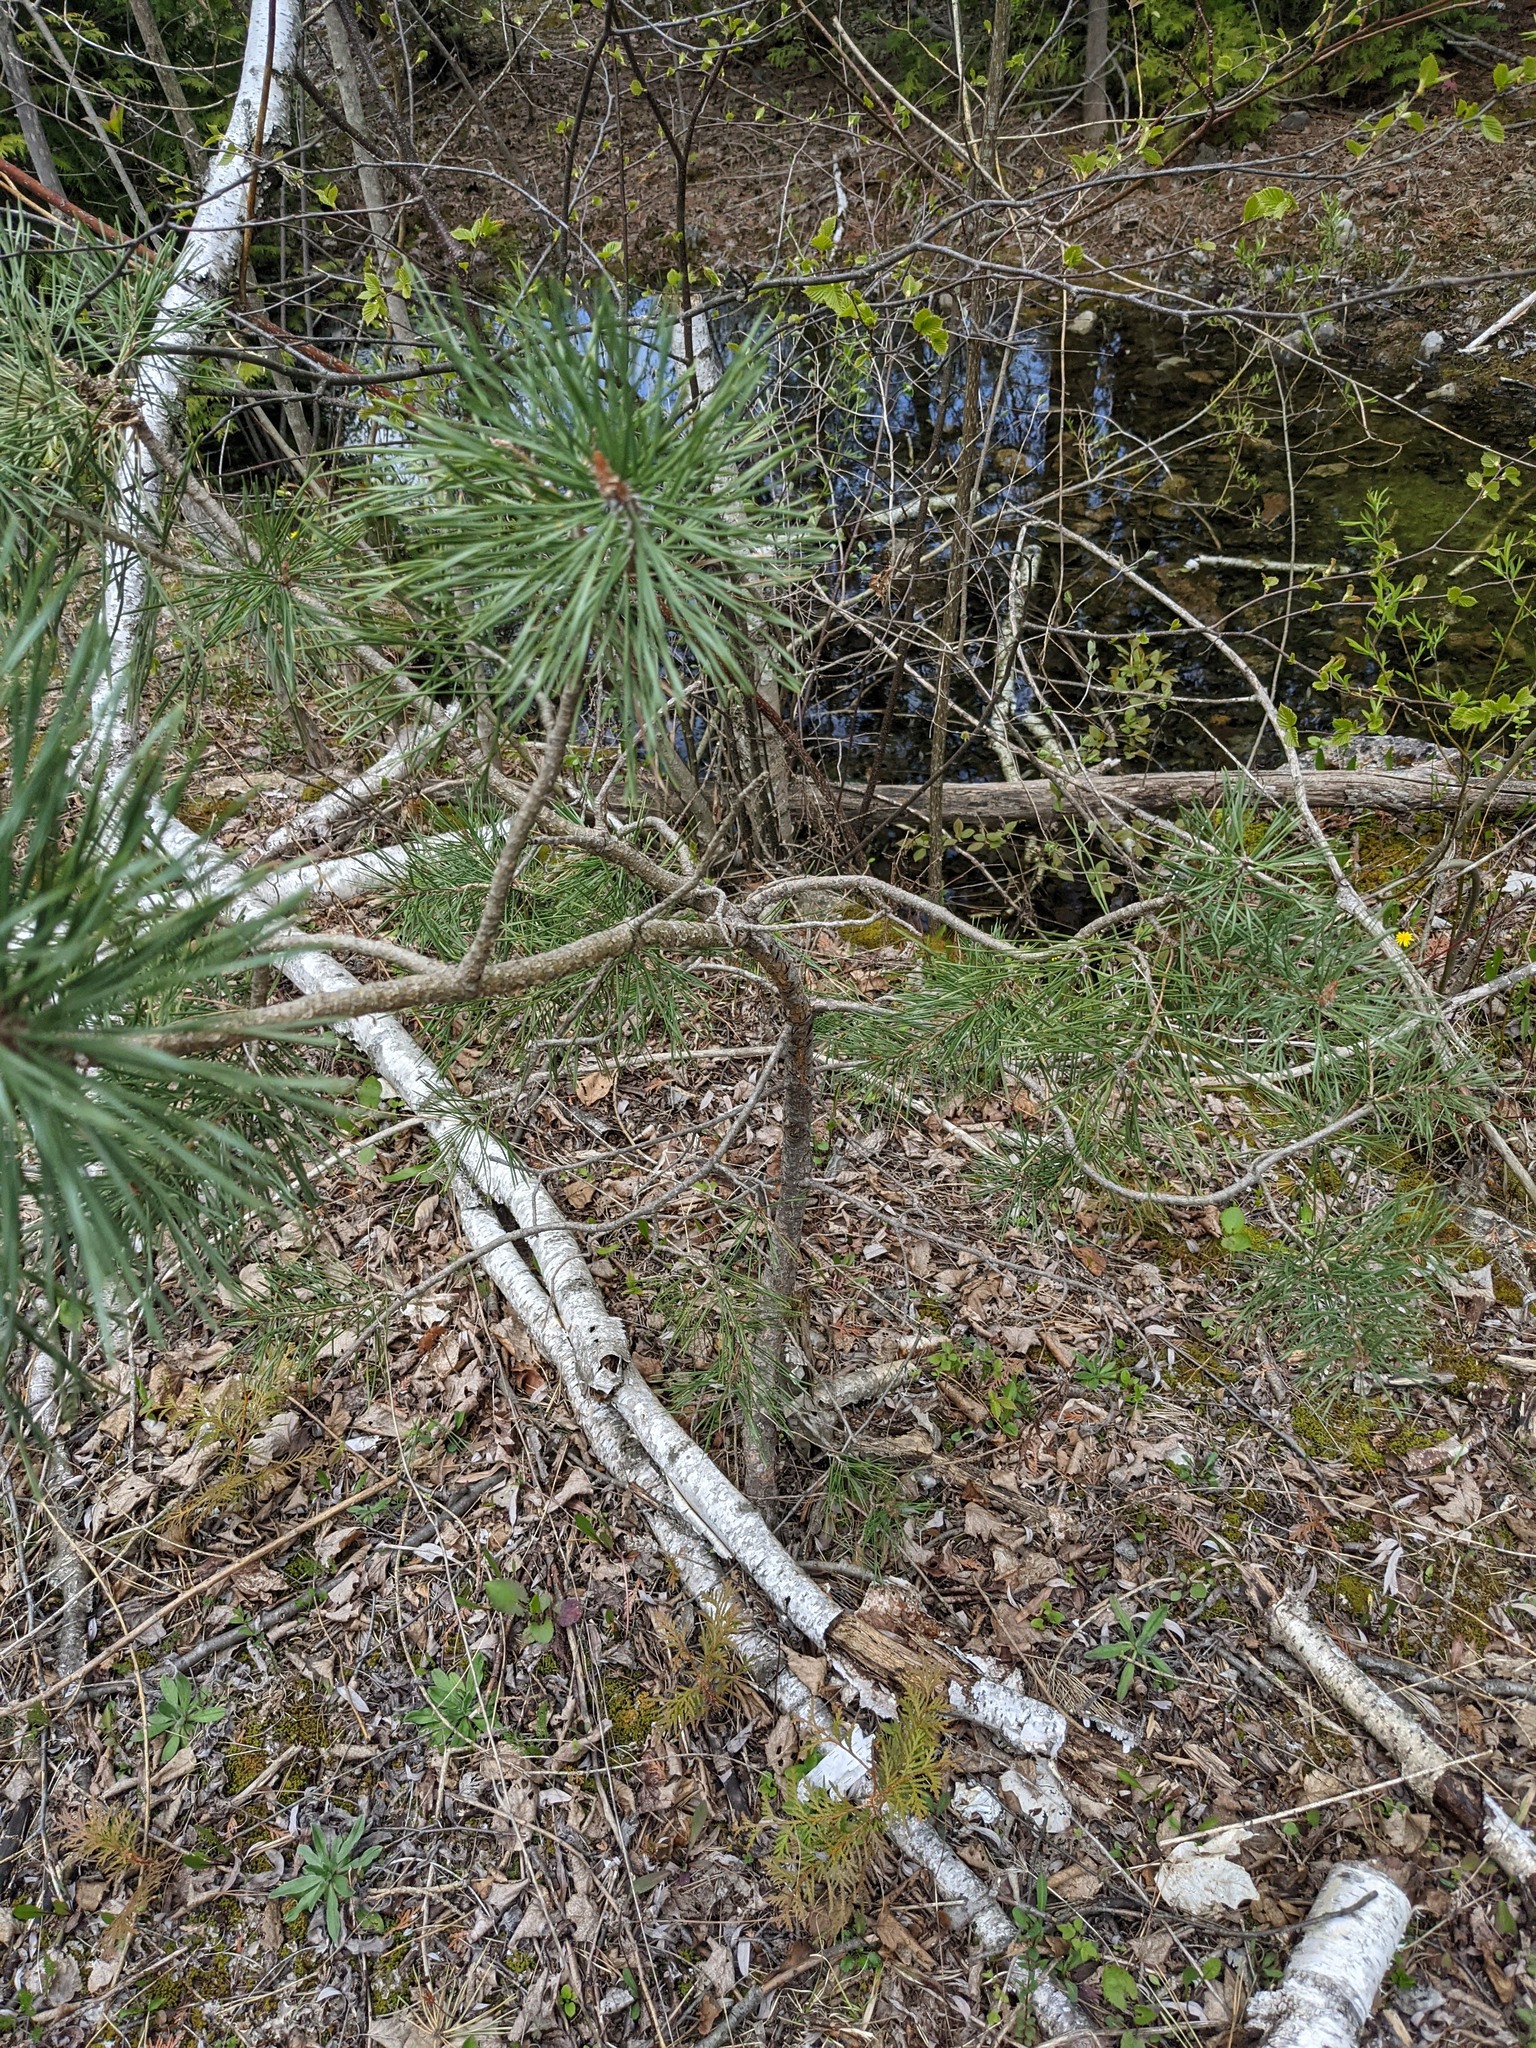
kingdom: Plantae
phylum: Tracheophyta
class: Pinopsida
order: Pinales
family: Pinaceae
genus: Pinus
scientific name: Pinus sylvestris
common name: Scots pine
